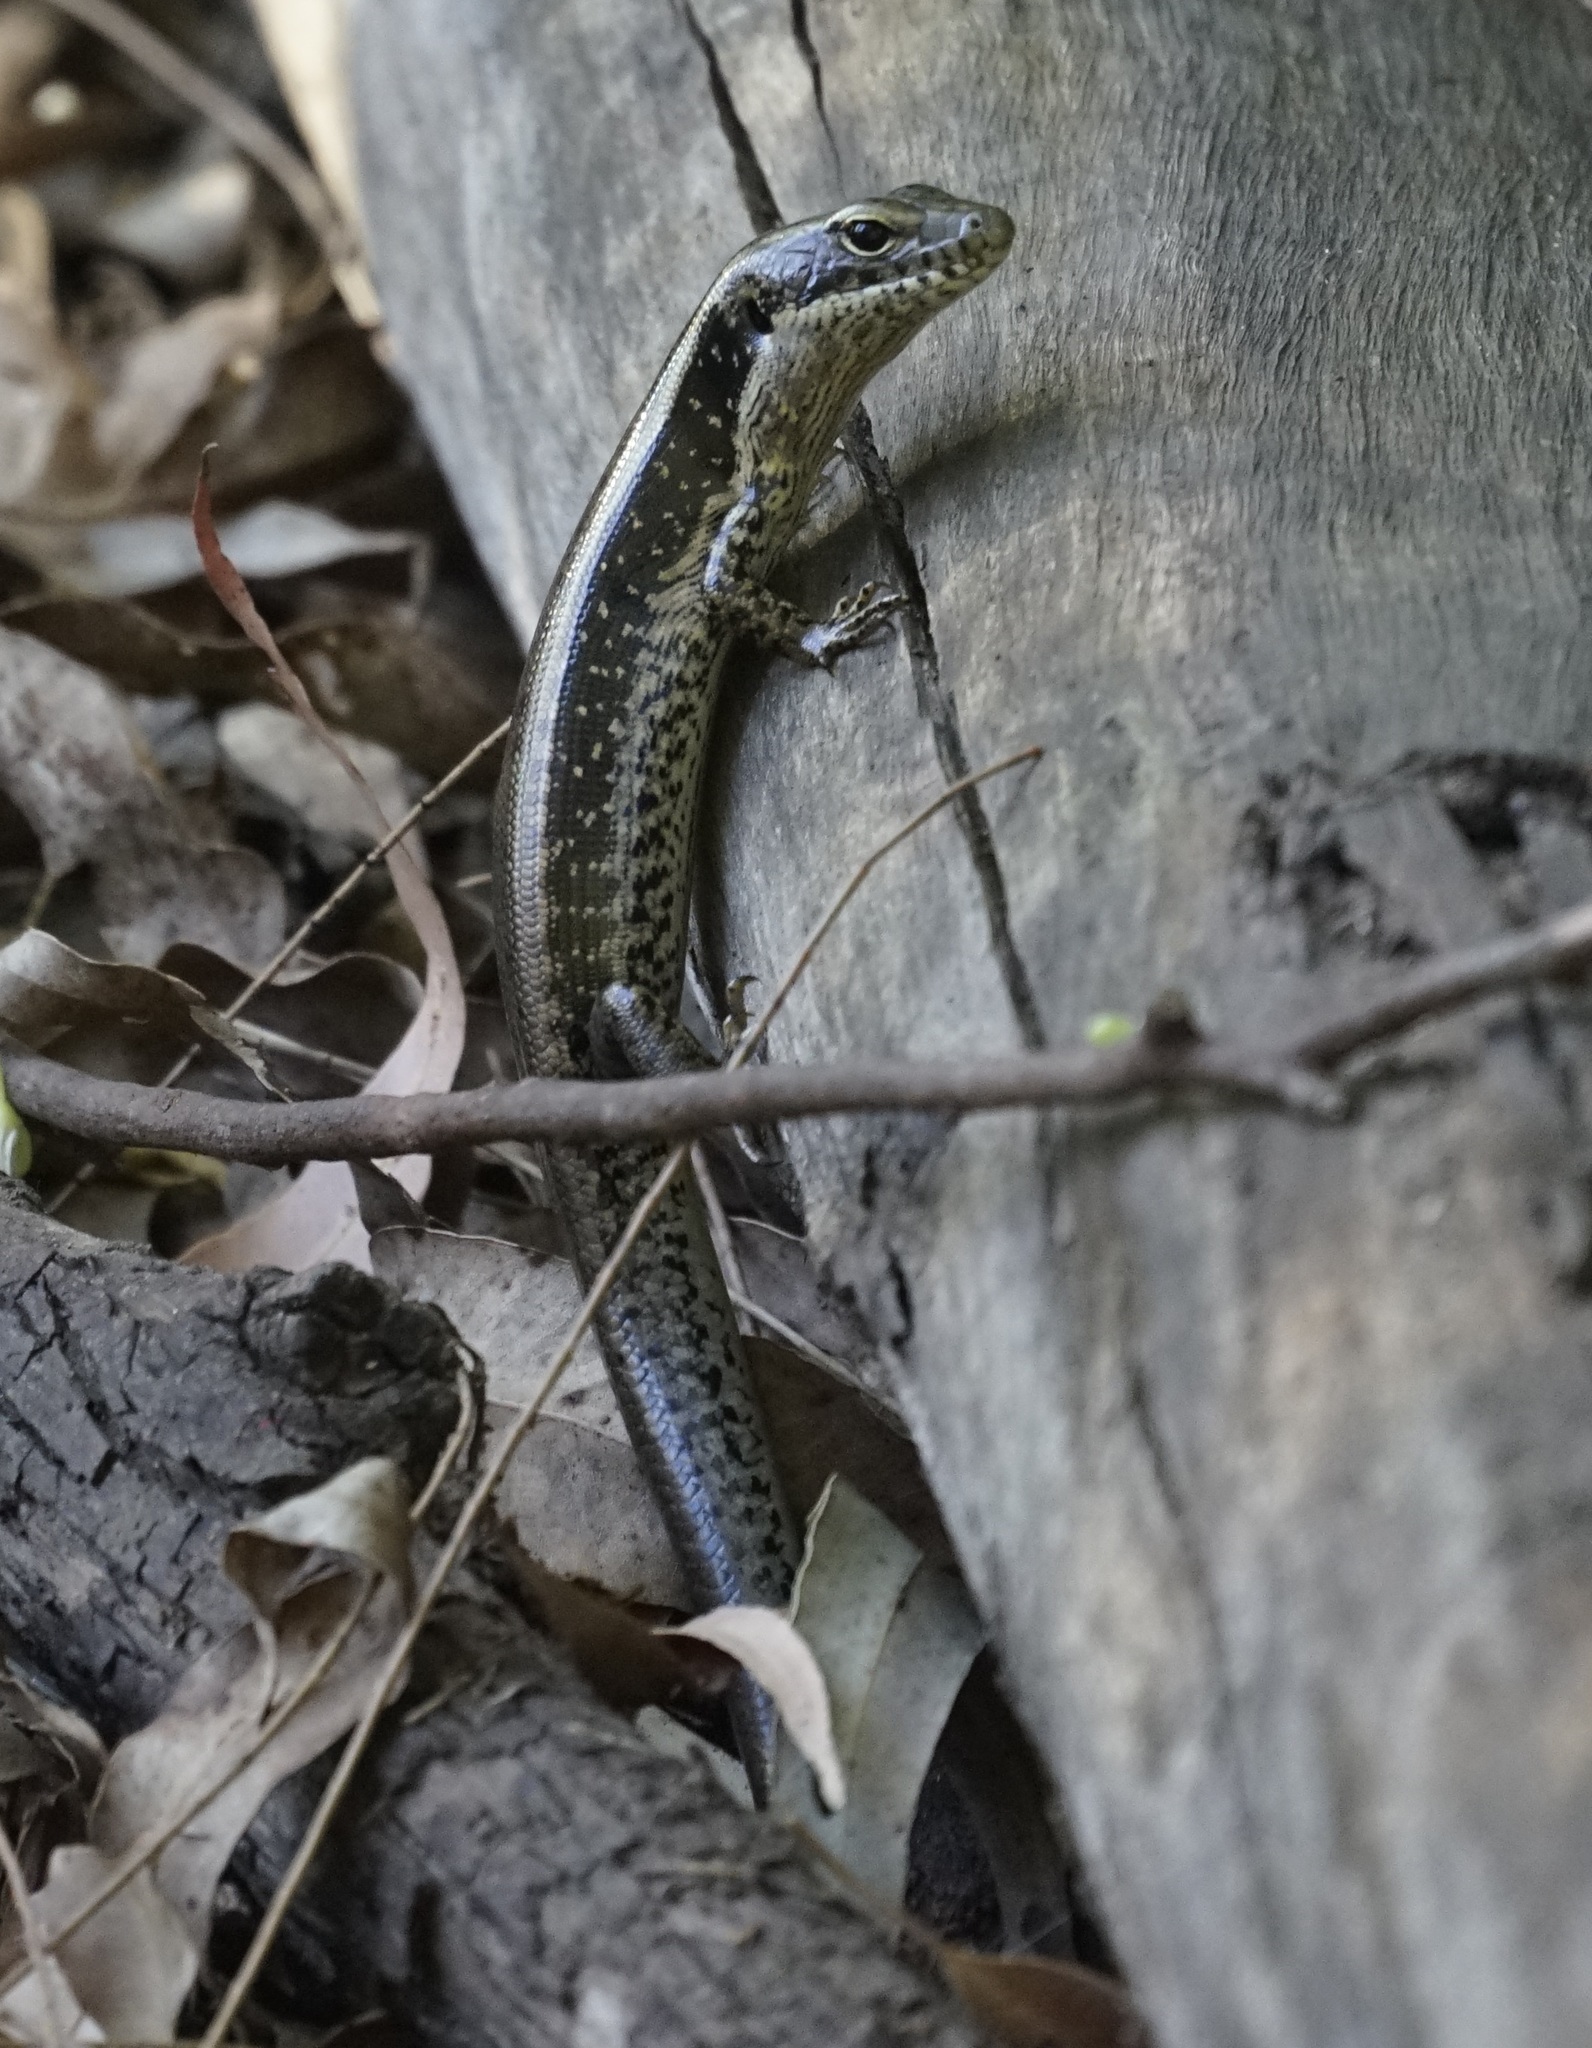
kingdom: Animalia
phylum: Chordata
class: Squamata
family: Scincidae
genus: Eulamprus
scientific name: Eulamprus quoyii
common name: Eastern water skink
